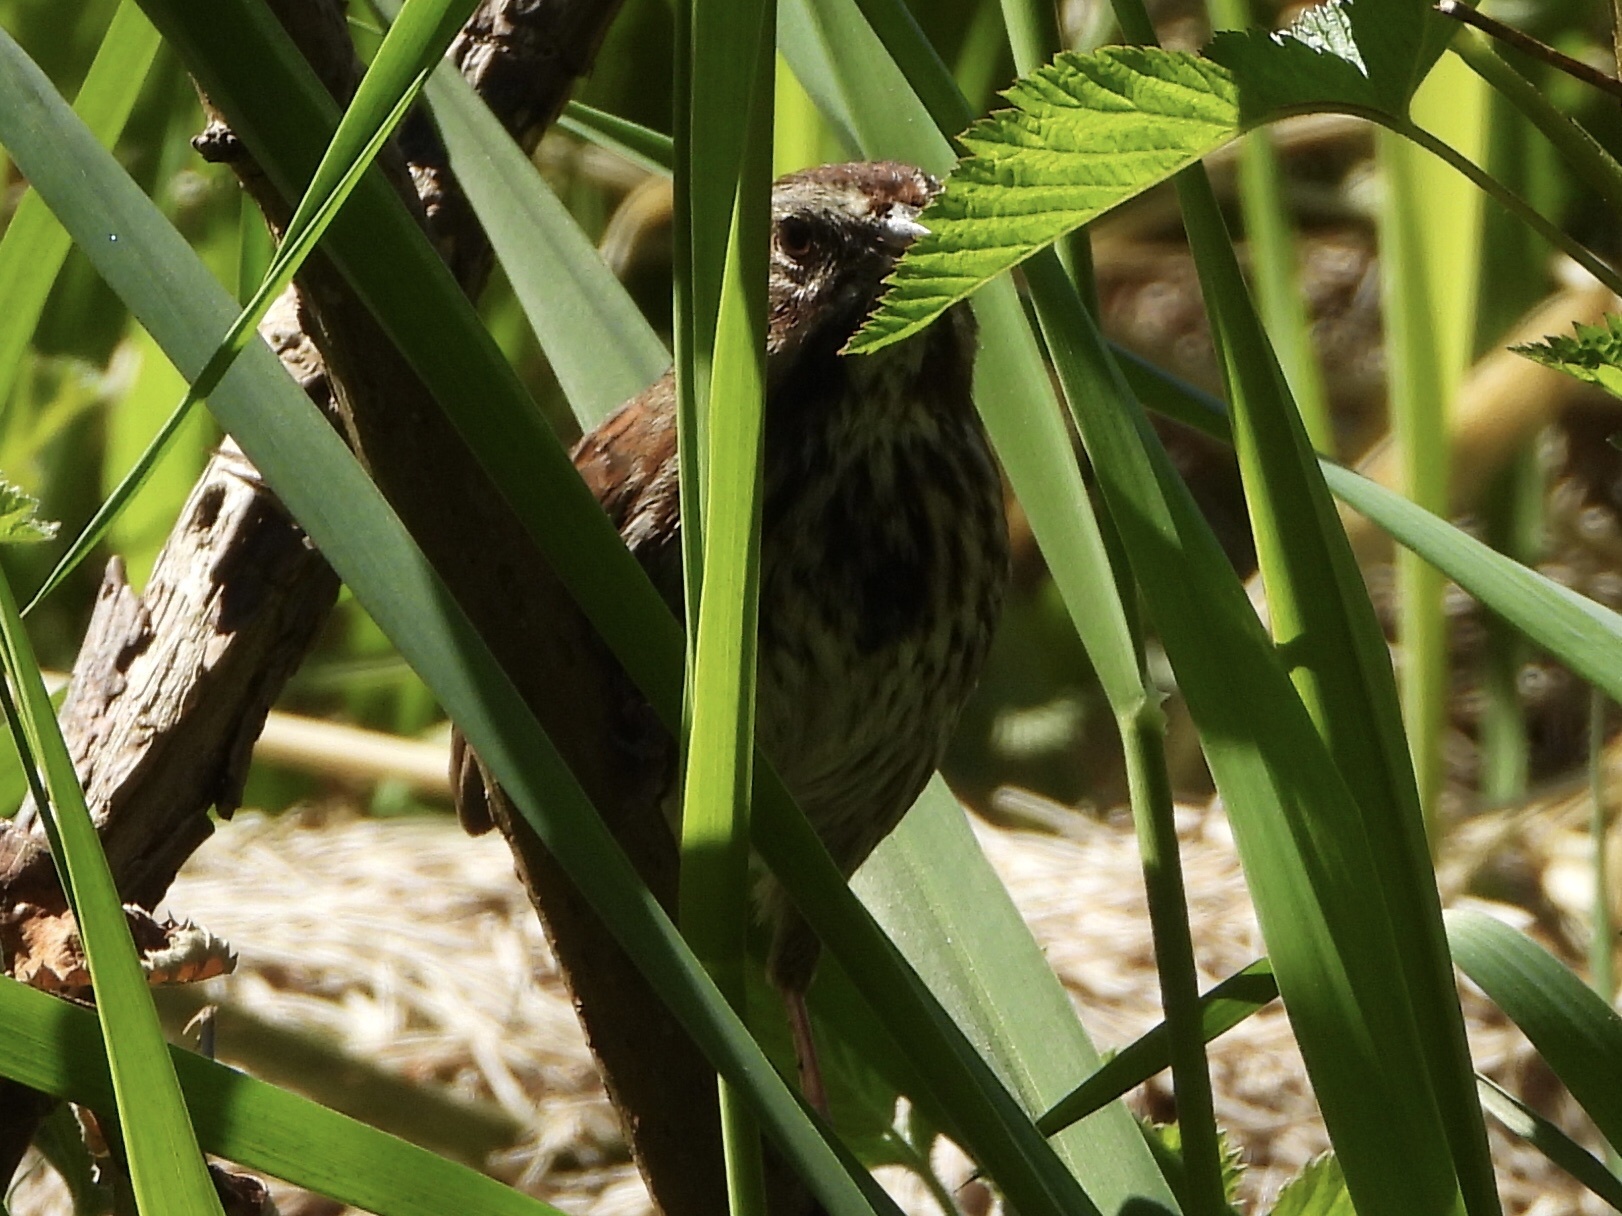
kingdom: Animalia
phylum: Chordata
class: Aves
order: Passeriformes
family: Passerellidae
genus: Melospiza
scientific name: Melospiza melodia
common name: Song sparrow
